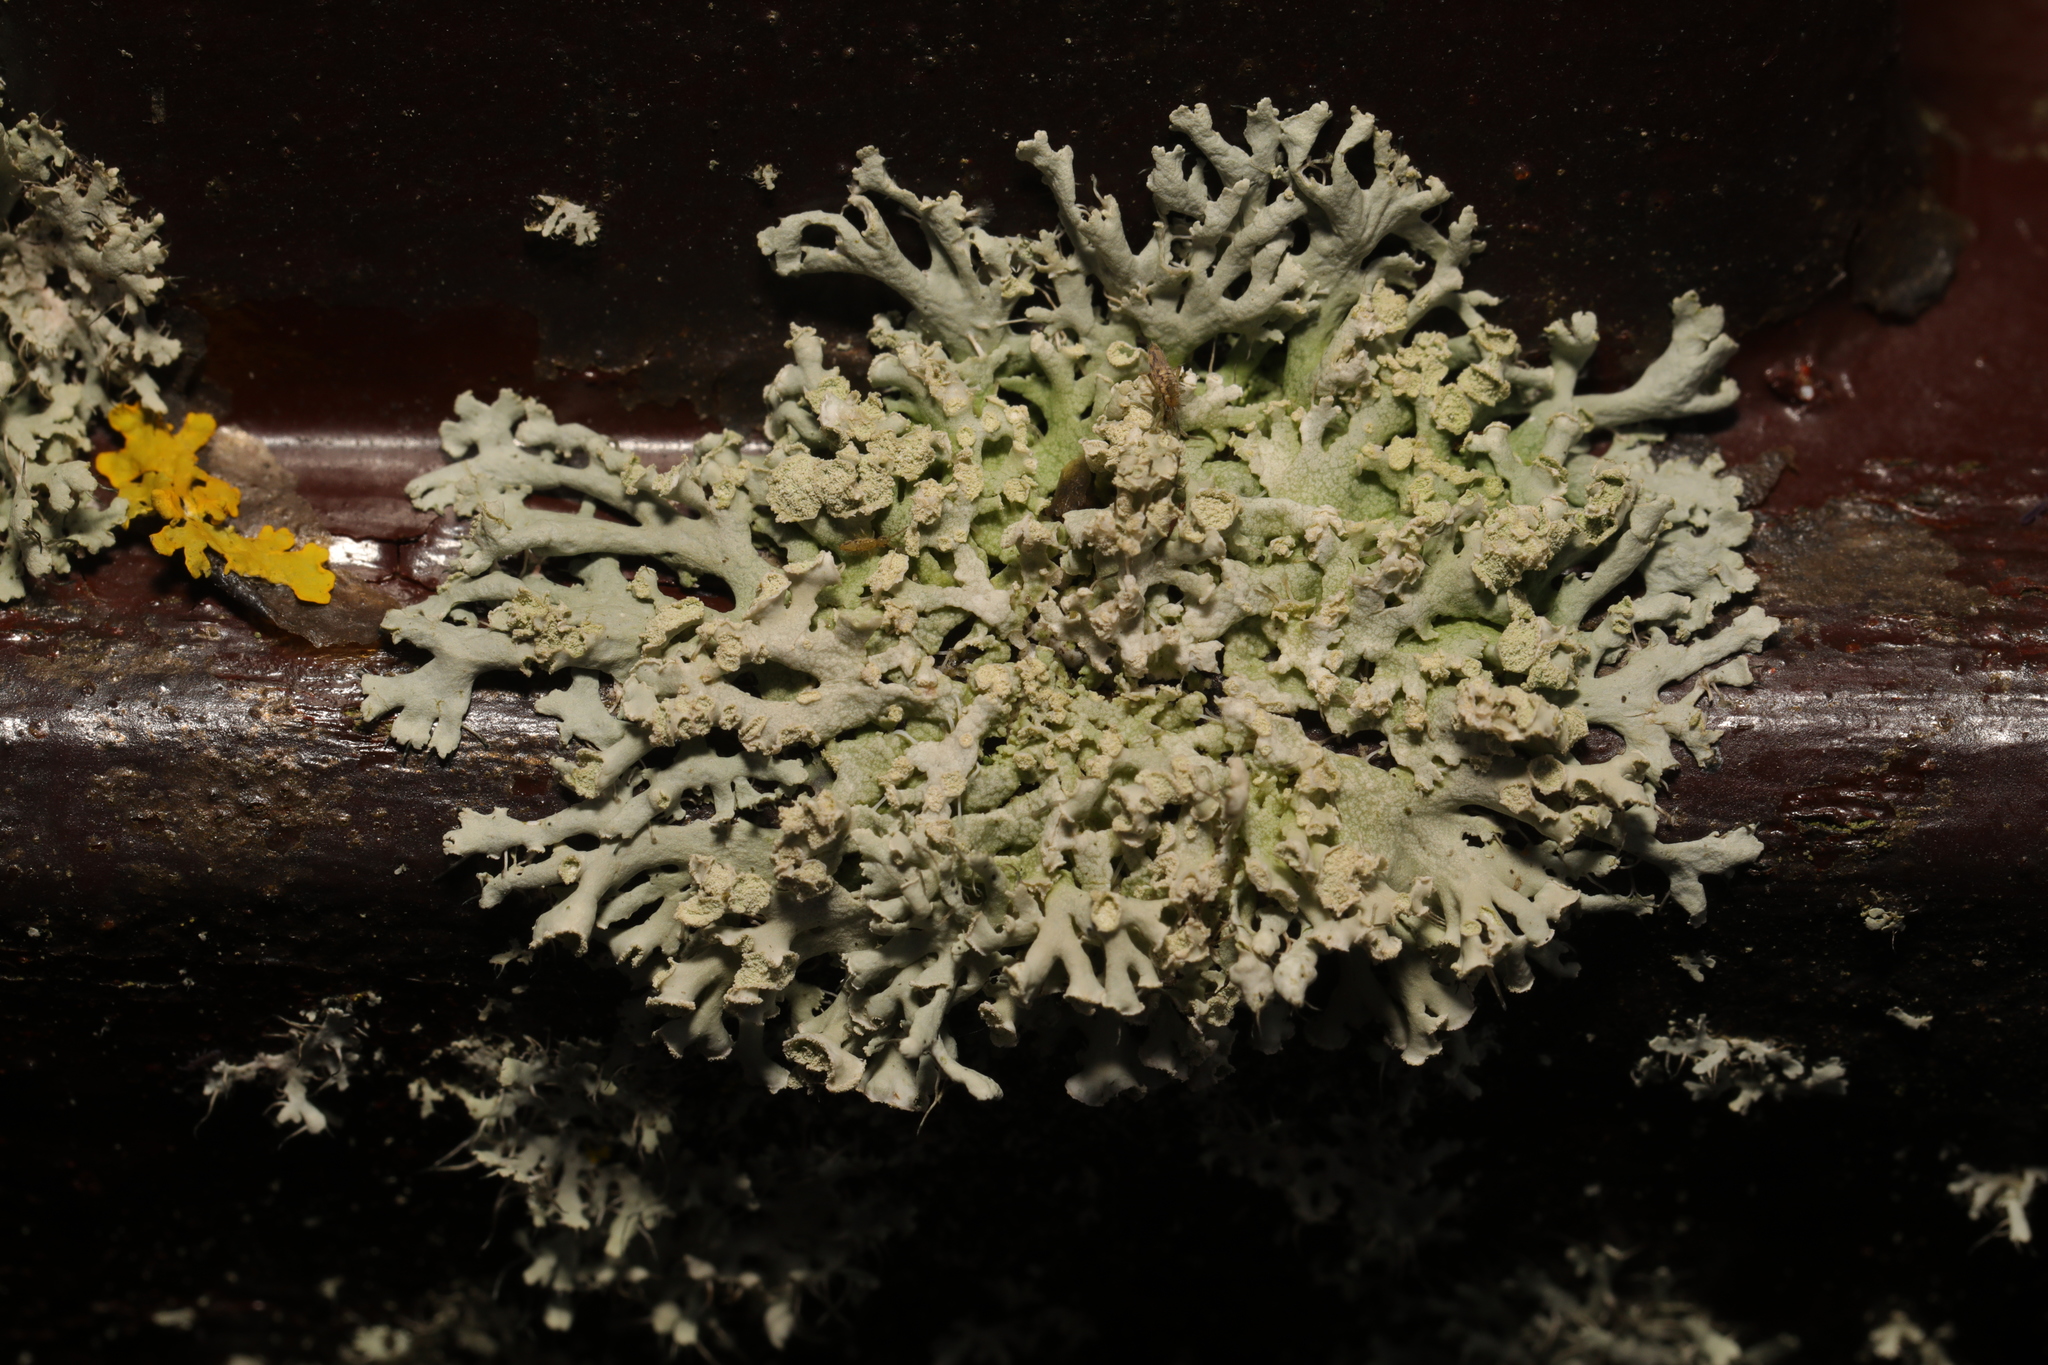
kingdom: Fungi
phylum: Ascomycota
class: Lecanoromycetes
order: Caliciales
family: Physciaceae
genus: Physcia
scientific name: Physcia tenella
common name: Fringed rosette lichen
